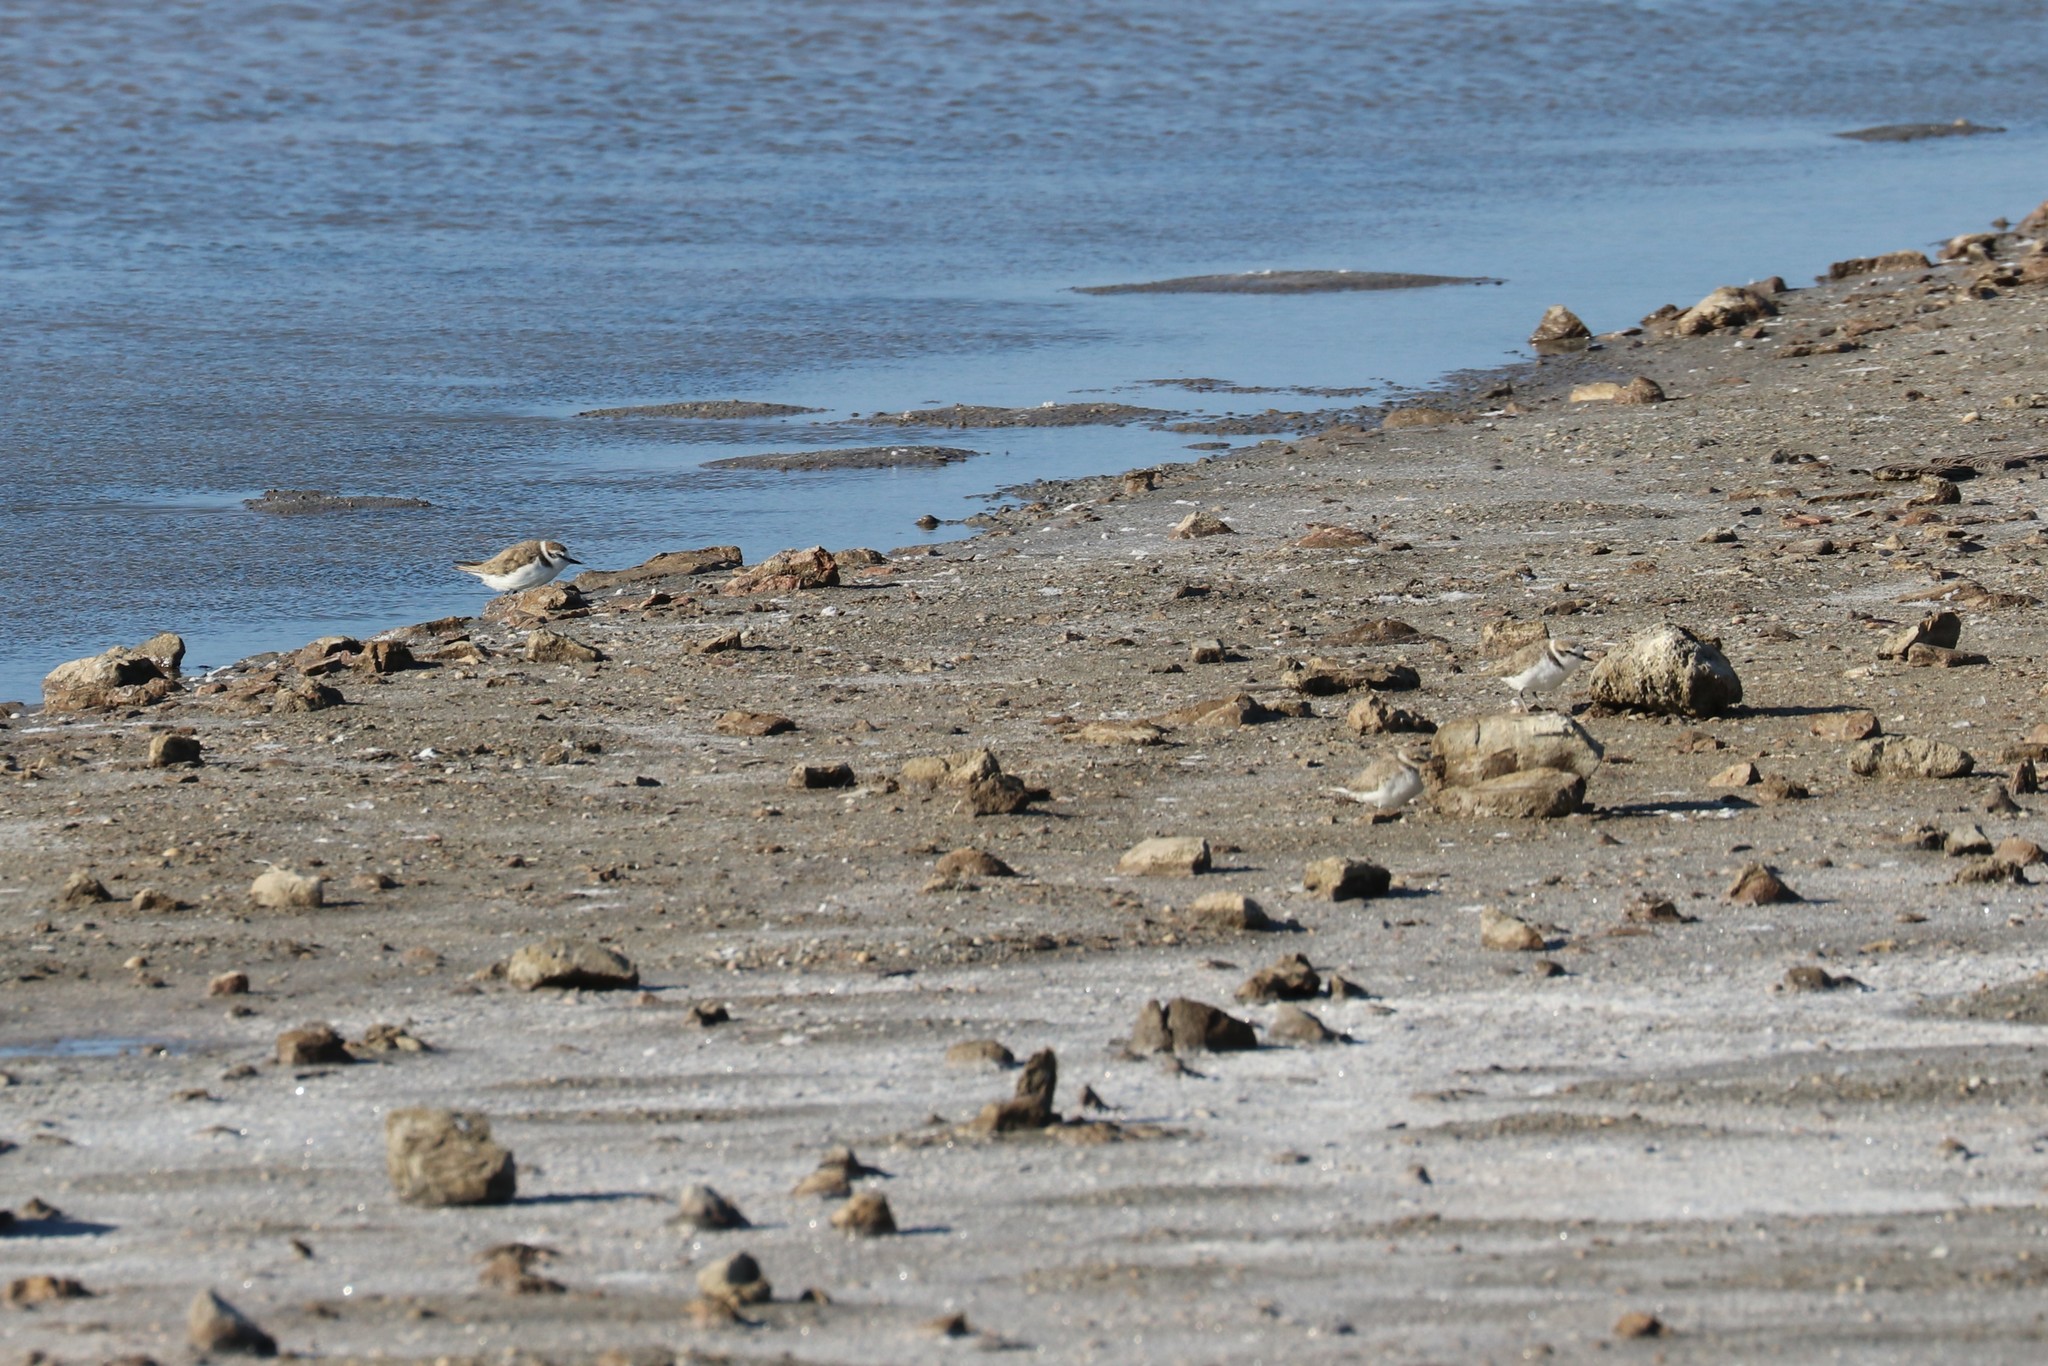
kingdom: Animalia
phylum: Chordata
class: Aves
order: Charadriiformes
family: Charadriidae
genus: Charadrius
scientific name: Charadrius alexandrinus
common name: Kentish plover
